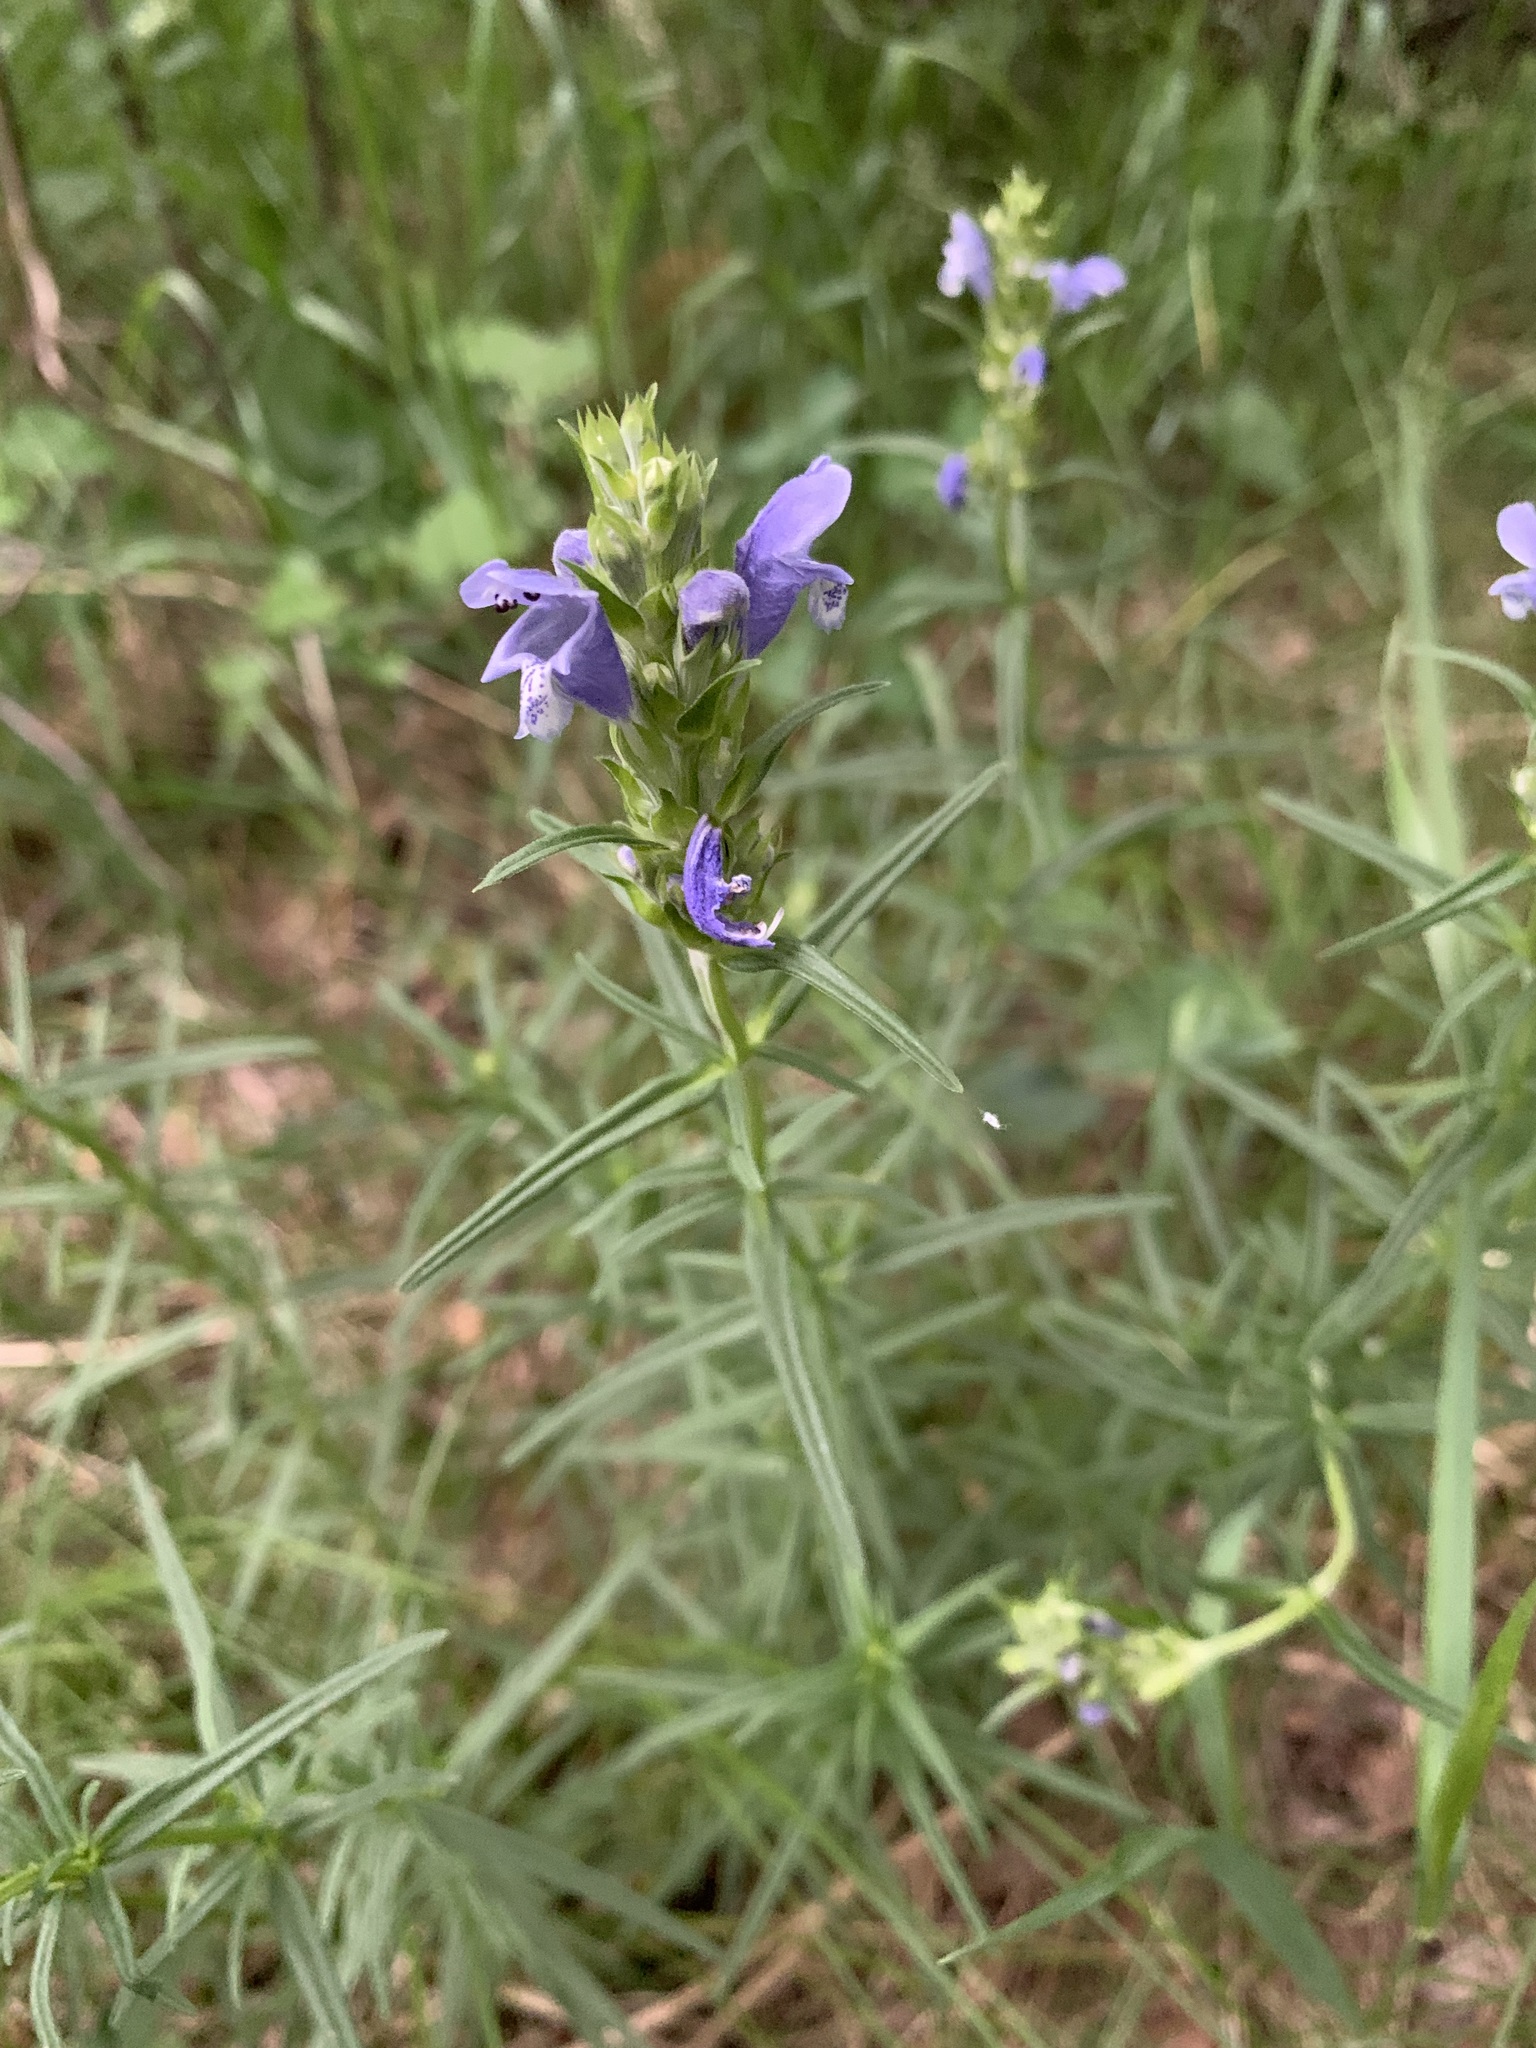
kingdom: Plantae
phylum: Tracheophyta
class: Magnoliopsida
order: Lamiales
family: Lamiaceae
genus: Dracocephalum
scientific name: Dracocephalum ruyschiana
